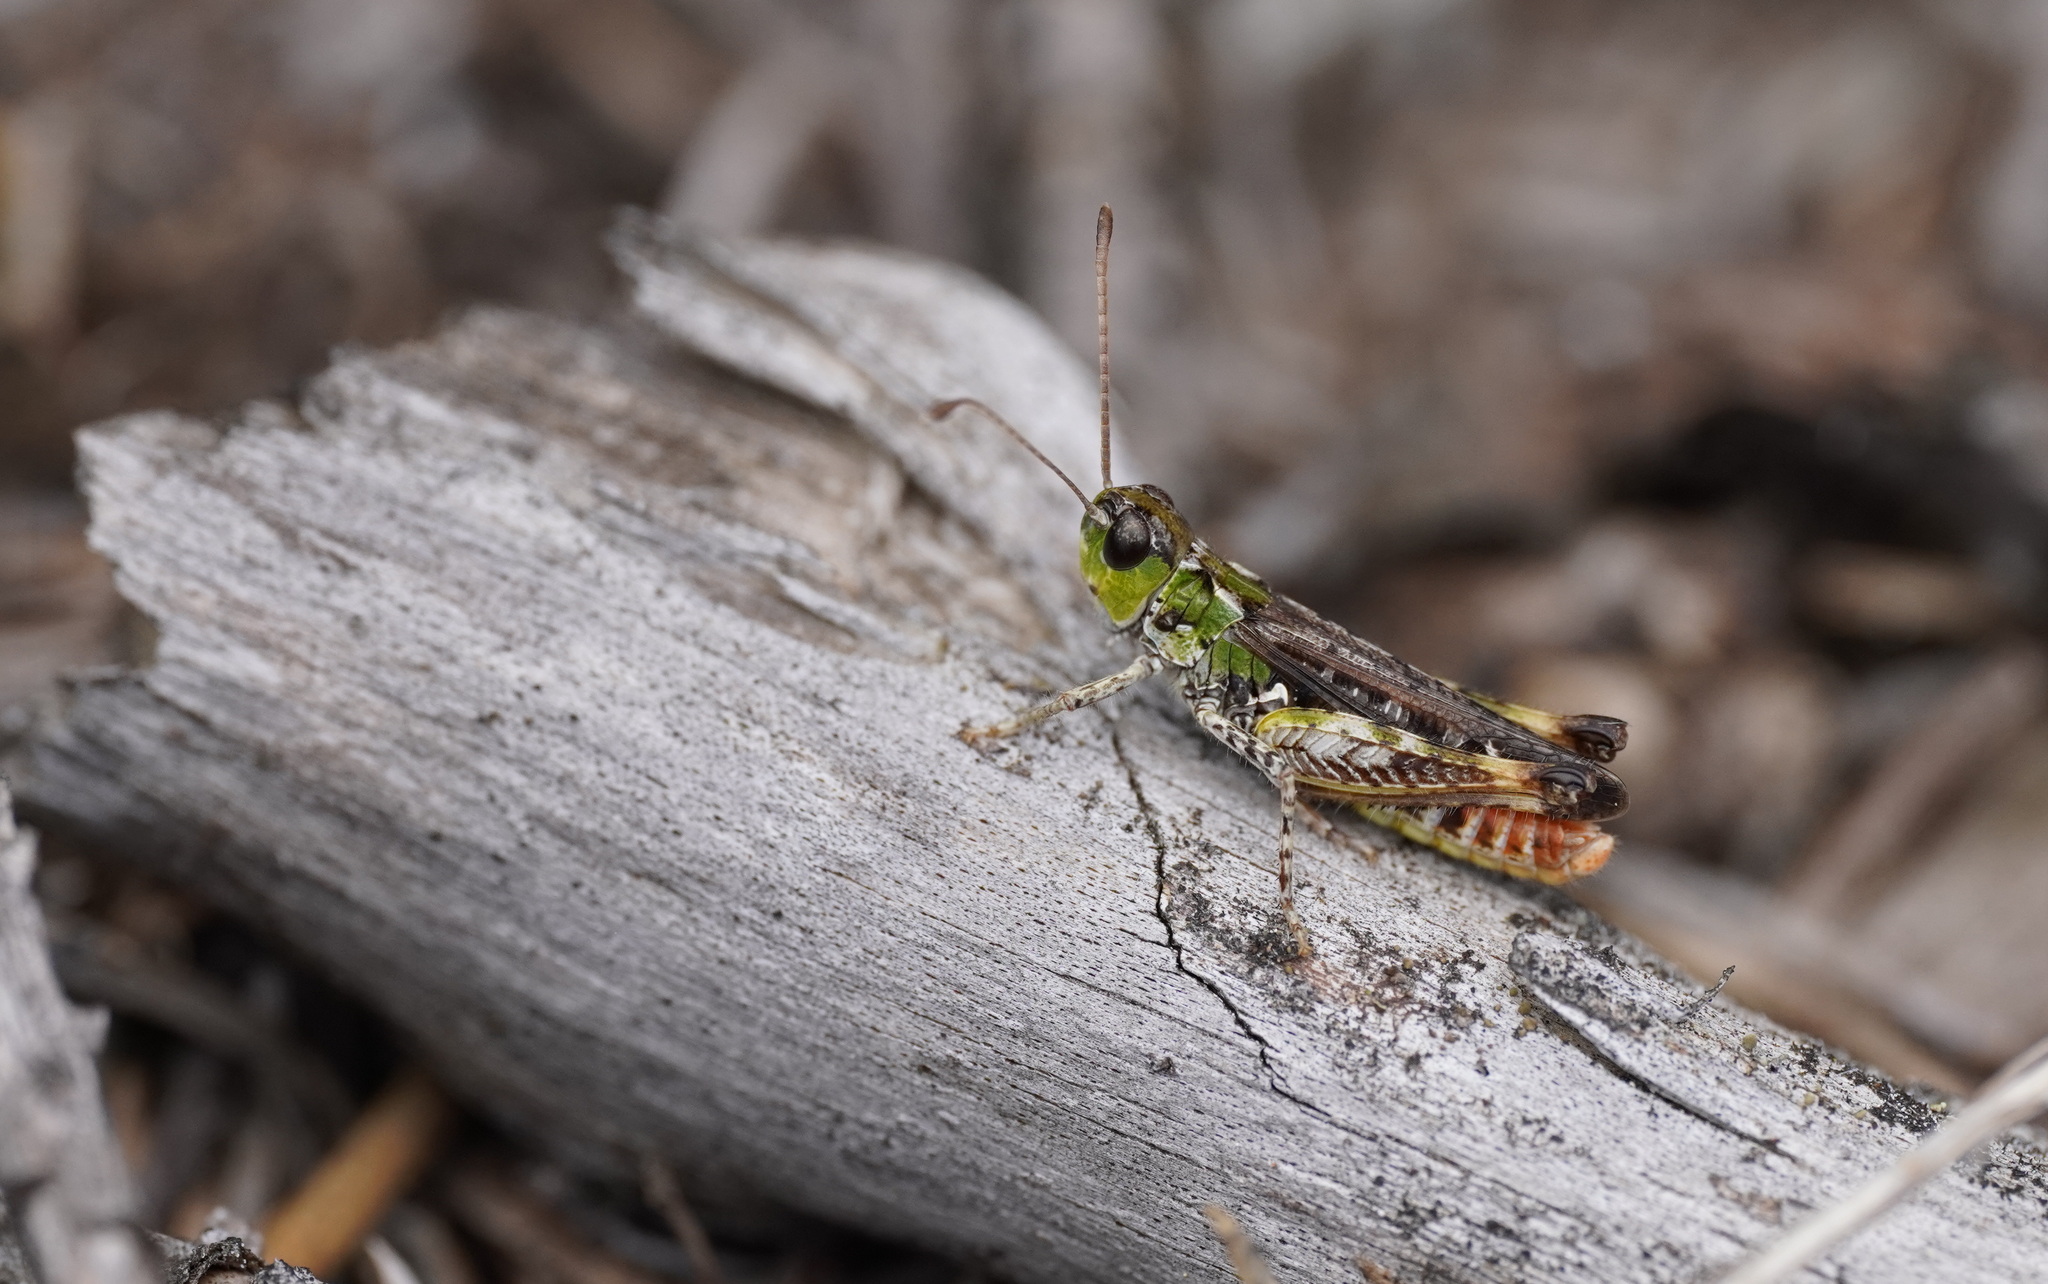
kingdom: Animalia
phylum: Arthropoda
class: Insecta
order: Orthoptera
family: Acrididae
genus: Myrmeleotettix
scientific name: Myrmeleotettix maculatus
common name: Mottled grasshopper
